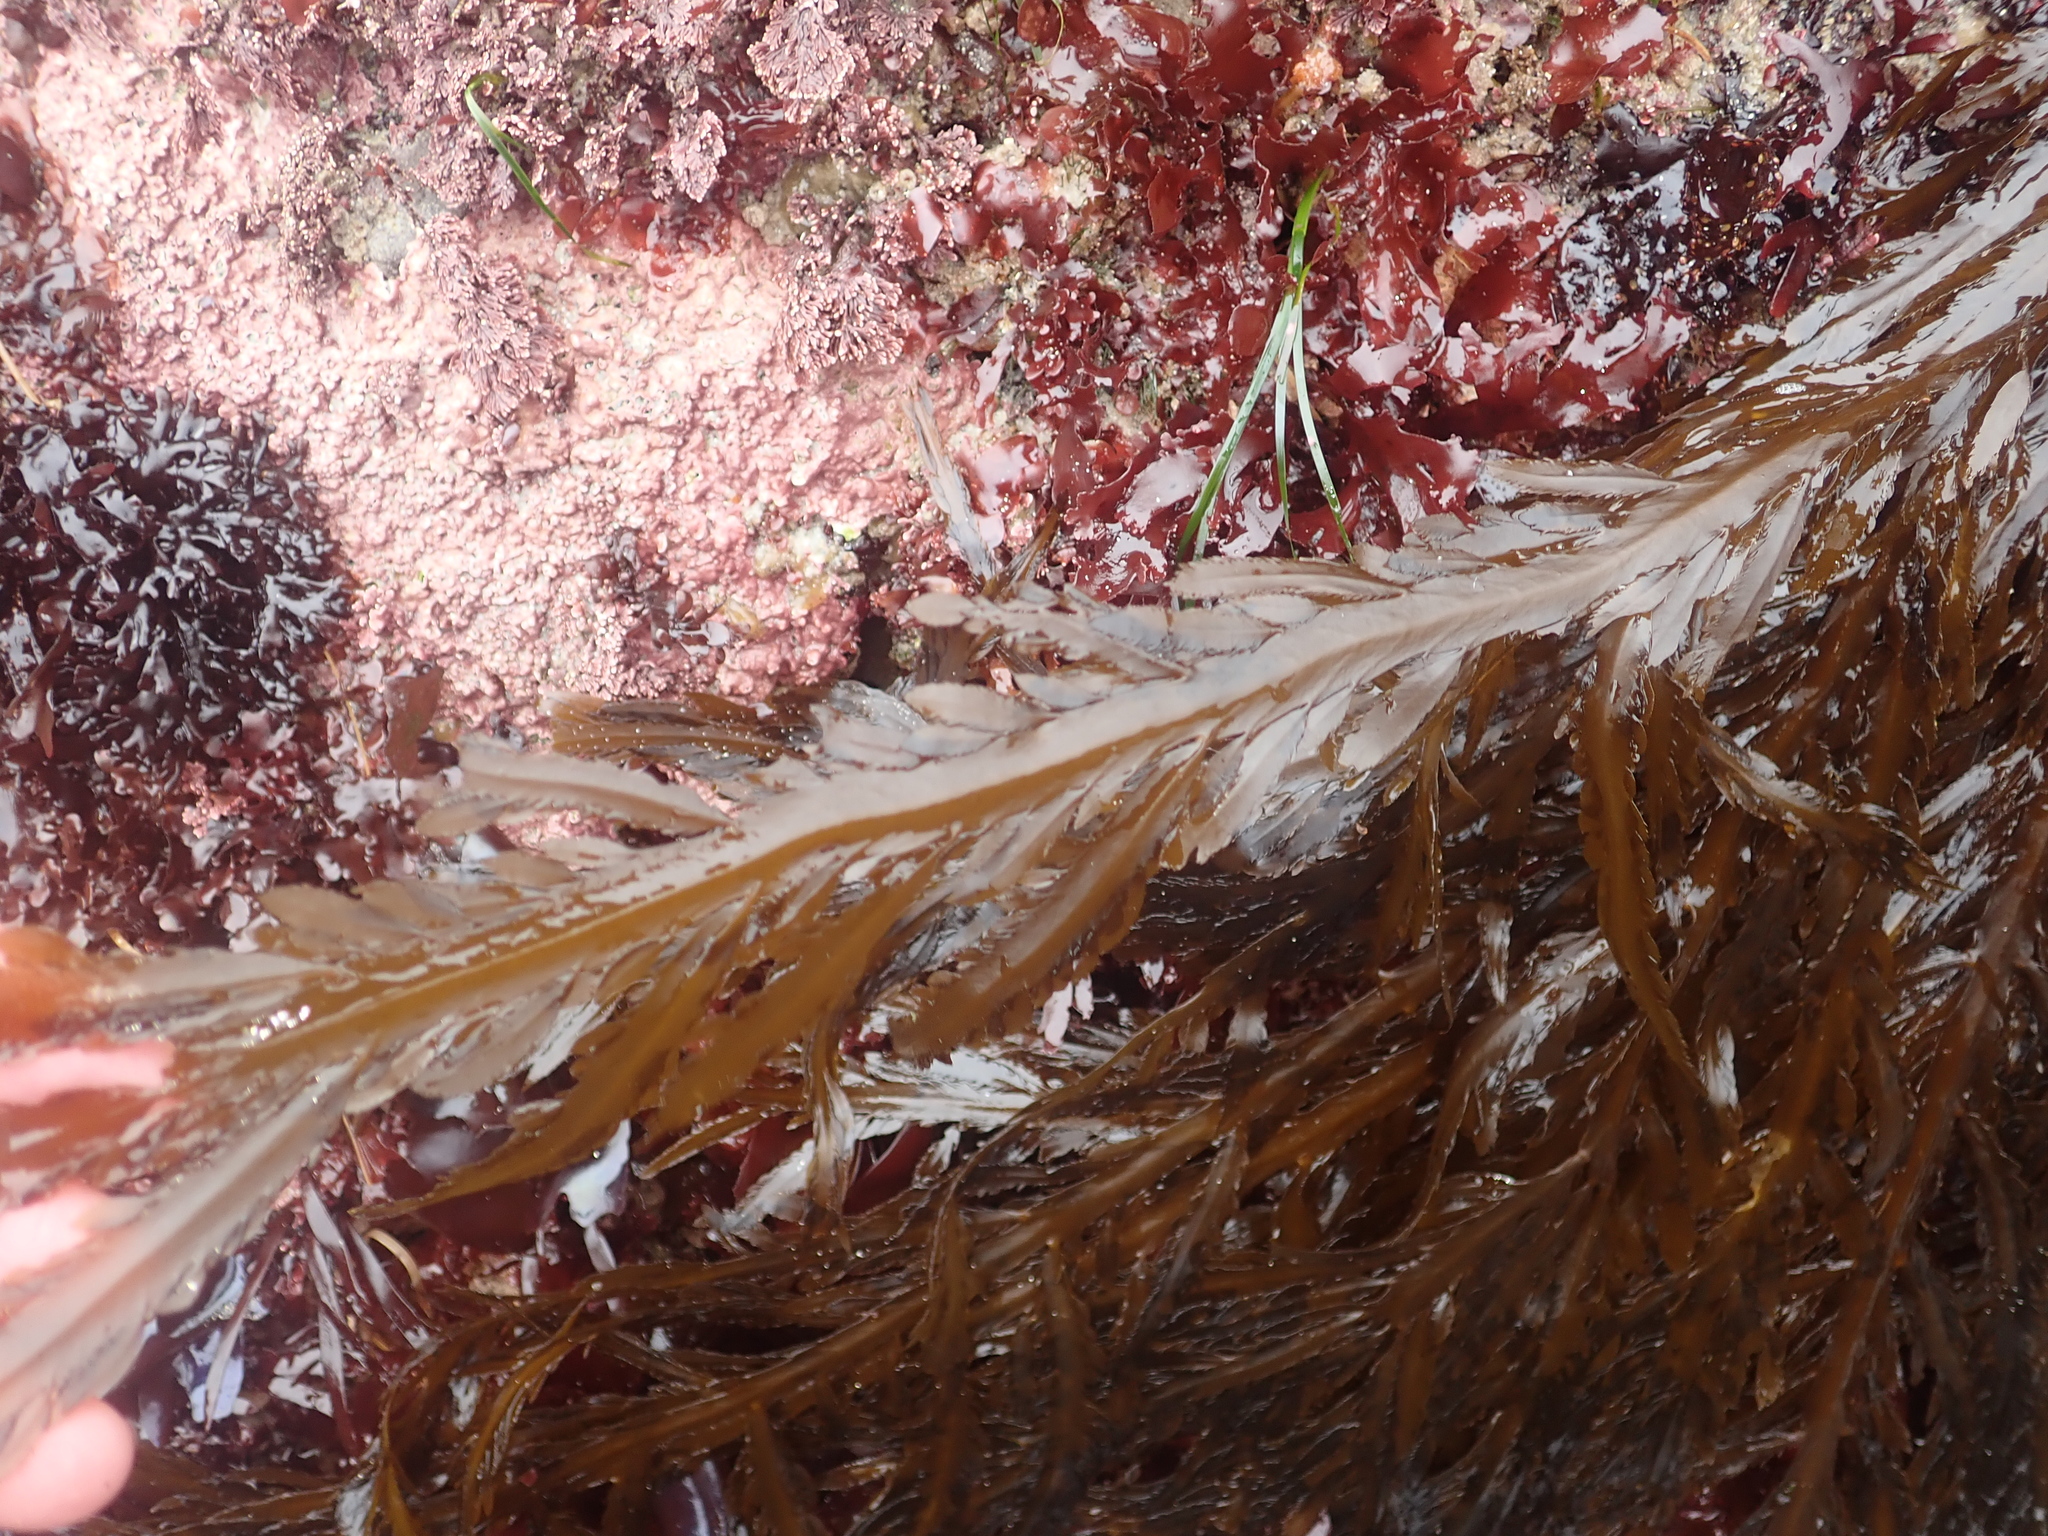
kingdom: Chromista
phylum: Ochrophyta
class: Phaeophyceae
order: Desmarestiales
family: Desmarestiaceae
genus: Desmarestia
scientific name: Desmarestia ligulata
